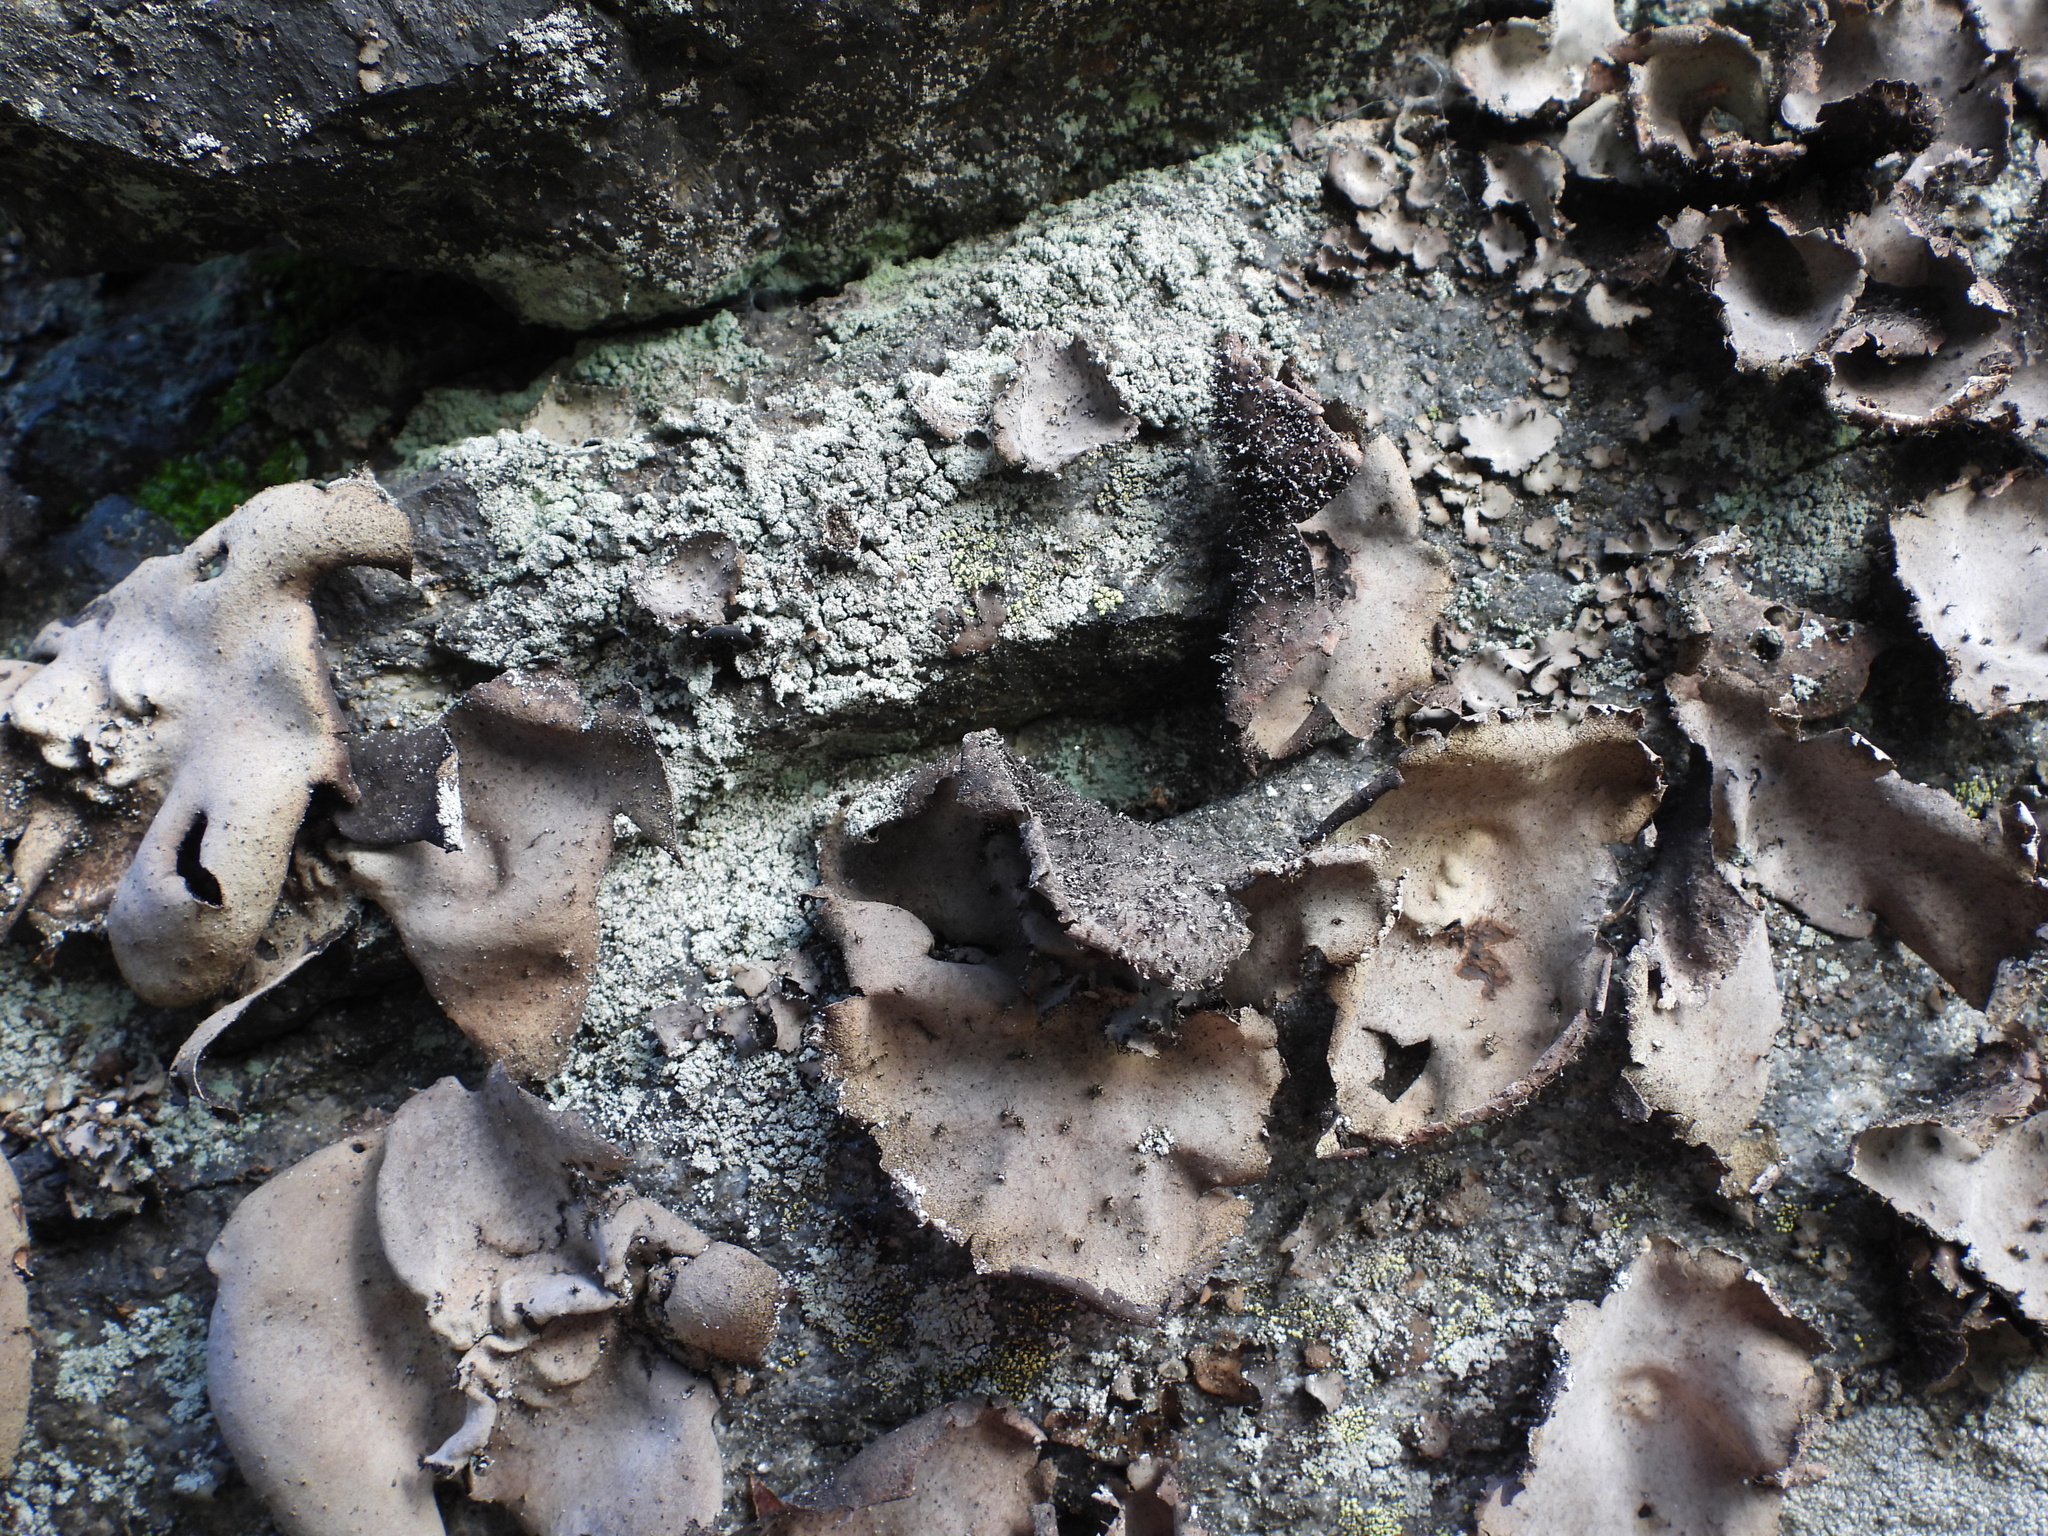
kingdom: Fungi
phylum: Ascomycota
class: Lecanoromycetes
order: Umbilicariales
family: Umbilicariaceae
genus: Umbilicaria
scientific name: Umbilicaria hirsuta
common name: Granulating rocktripe lichen
